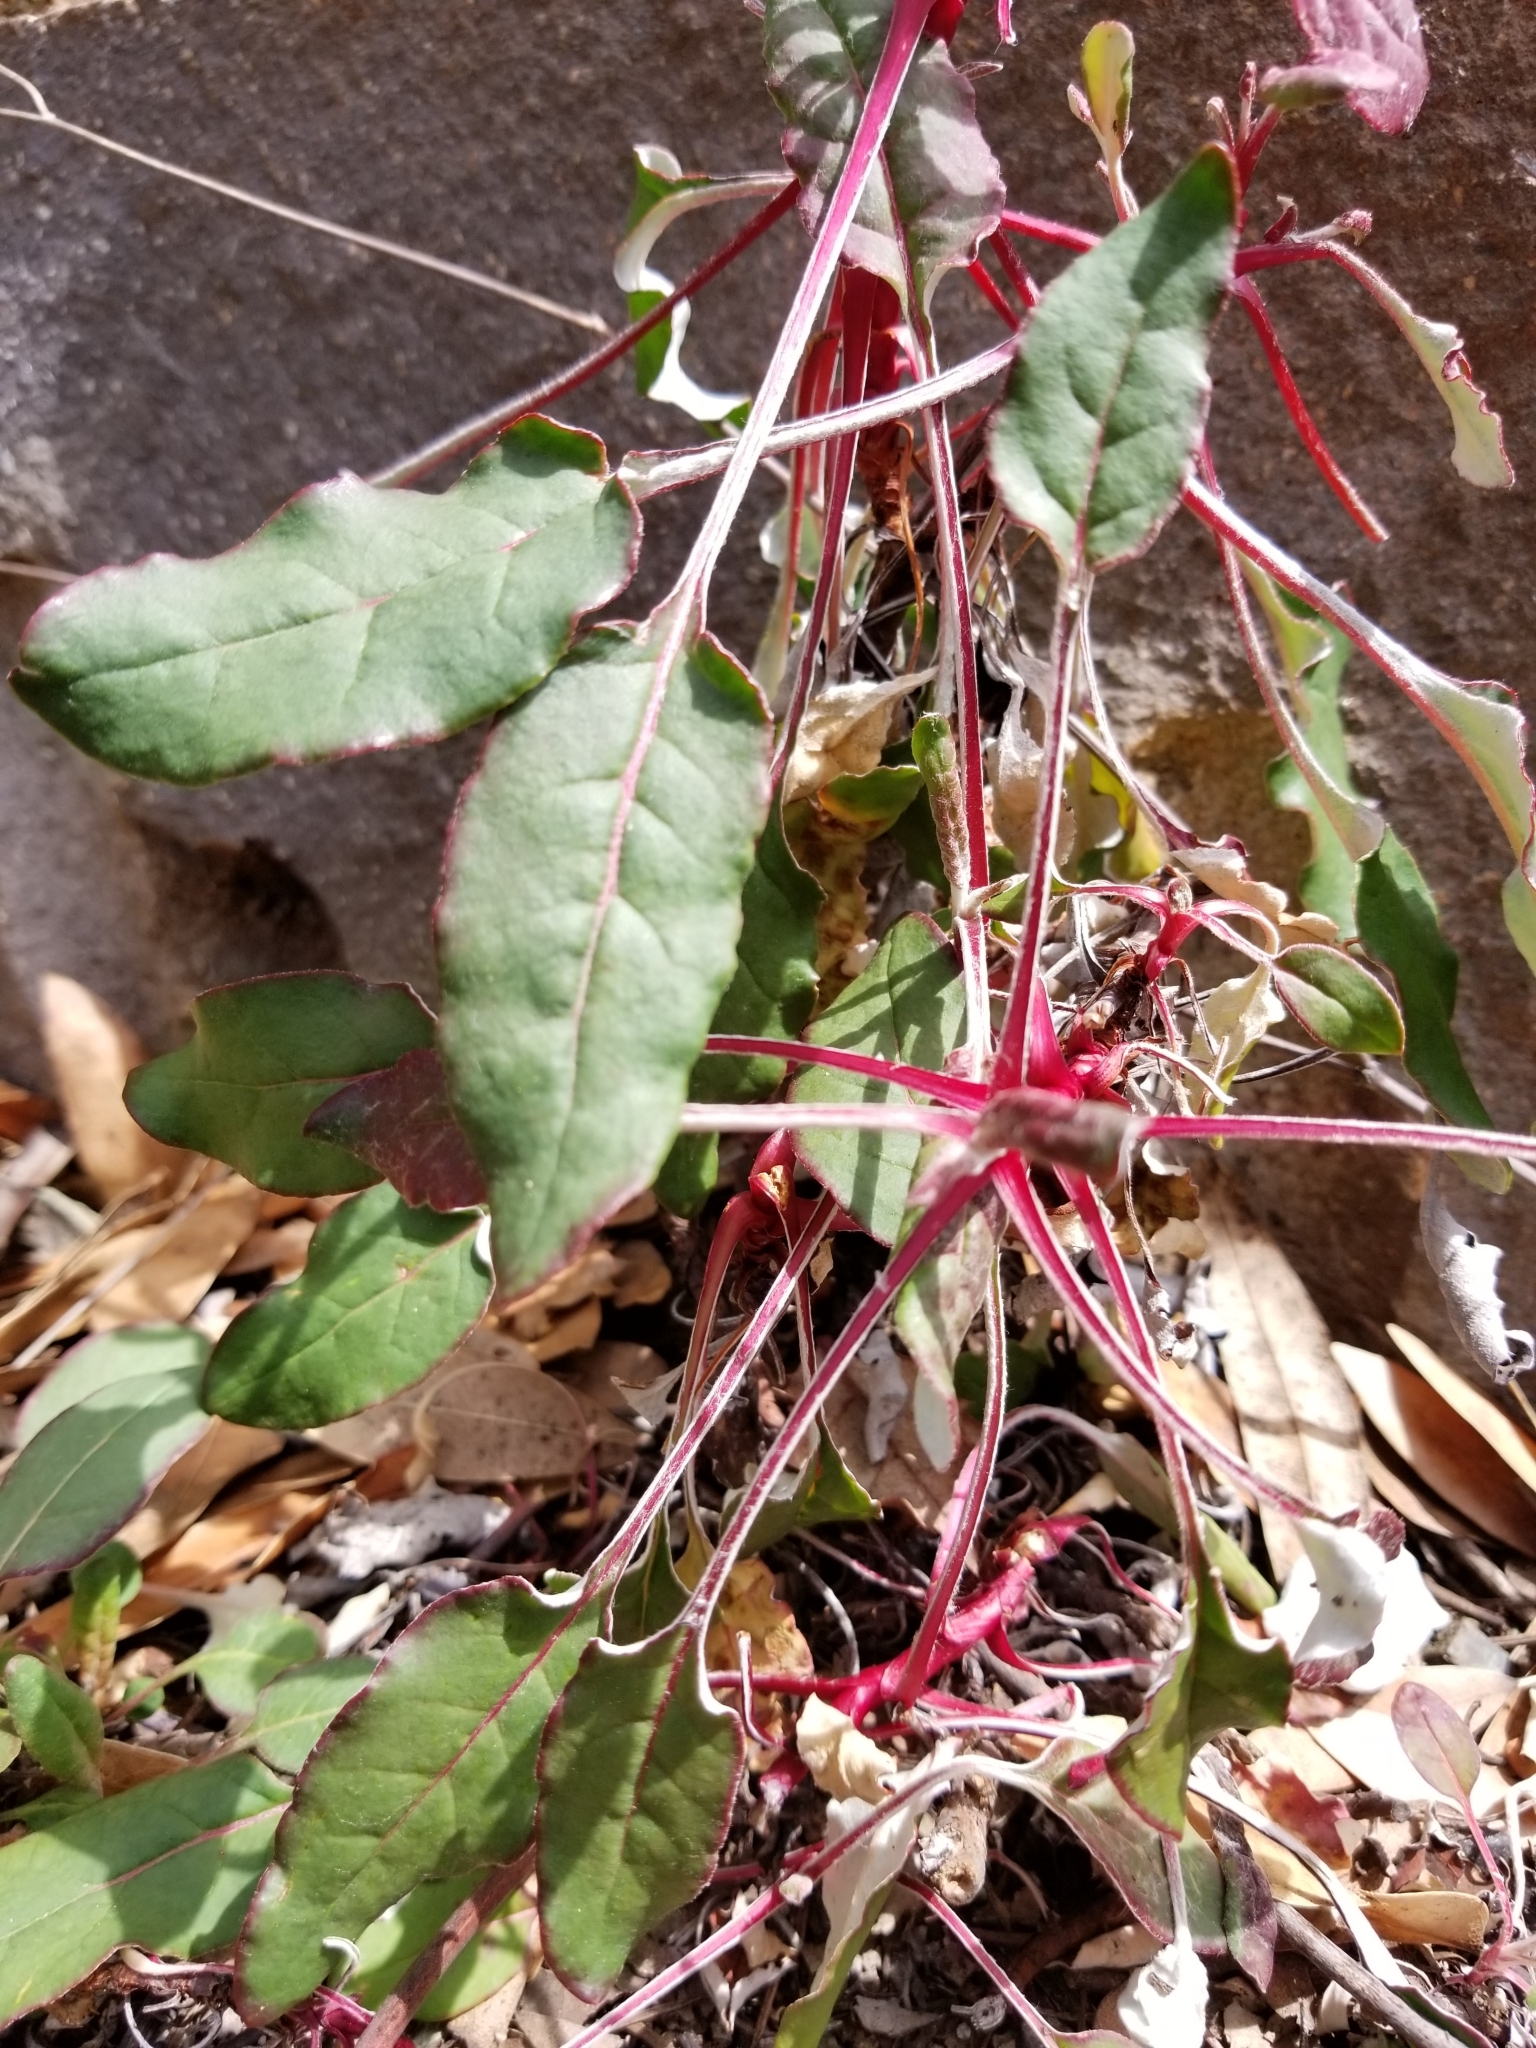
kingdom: Plantae
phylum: Tracheophyta
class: Magnoliopsida
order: Caryophyllales
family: Polygonaceae
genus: Eriogonum
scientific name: Eriogonum nudum
